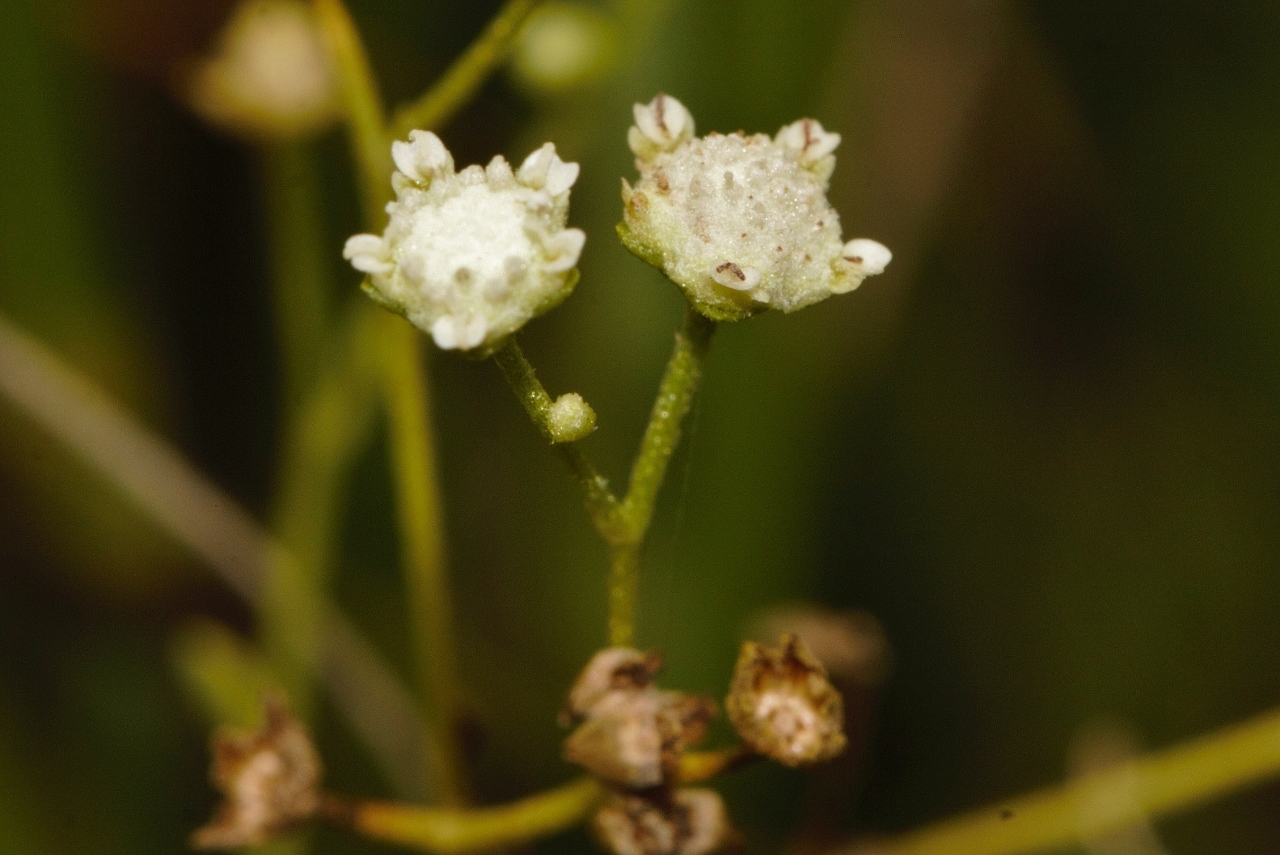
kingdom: Plantae
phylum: Tracheophyta
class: Magnoliopsida
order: Asterales
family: Asteraceae
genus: Parthenium
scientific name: Parthenium hysterophorus
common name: Santa maria feverfew
